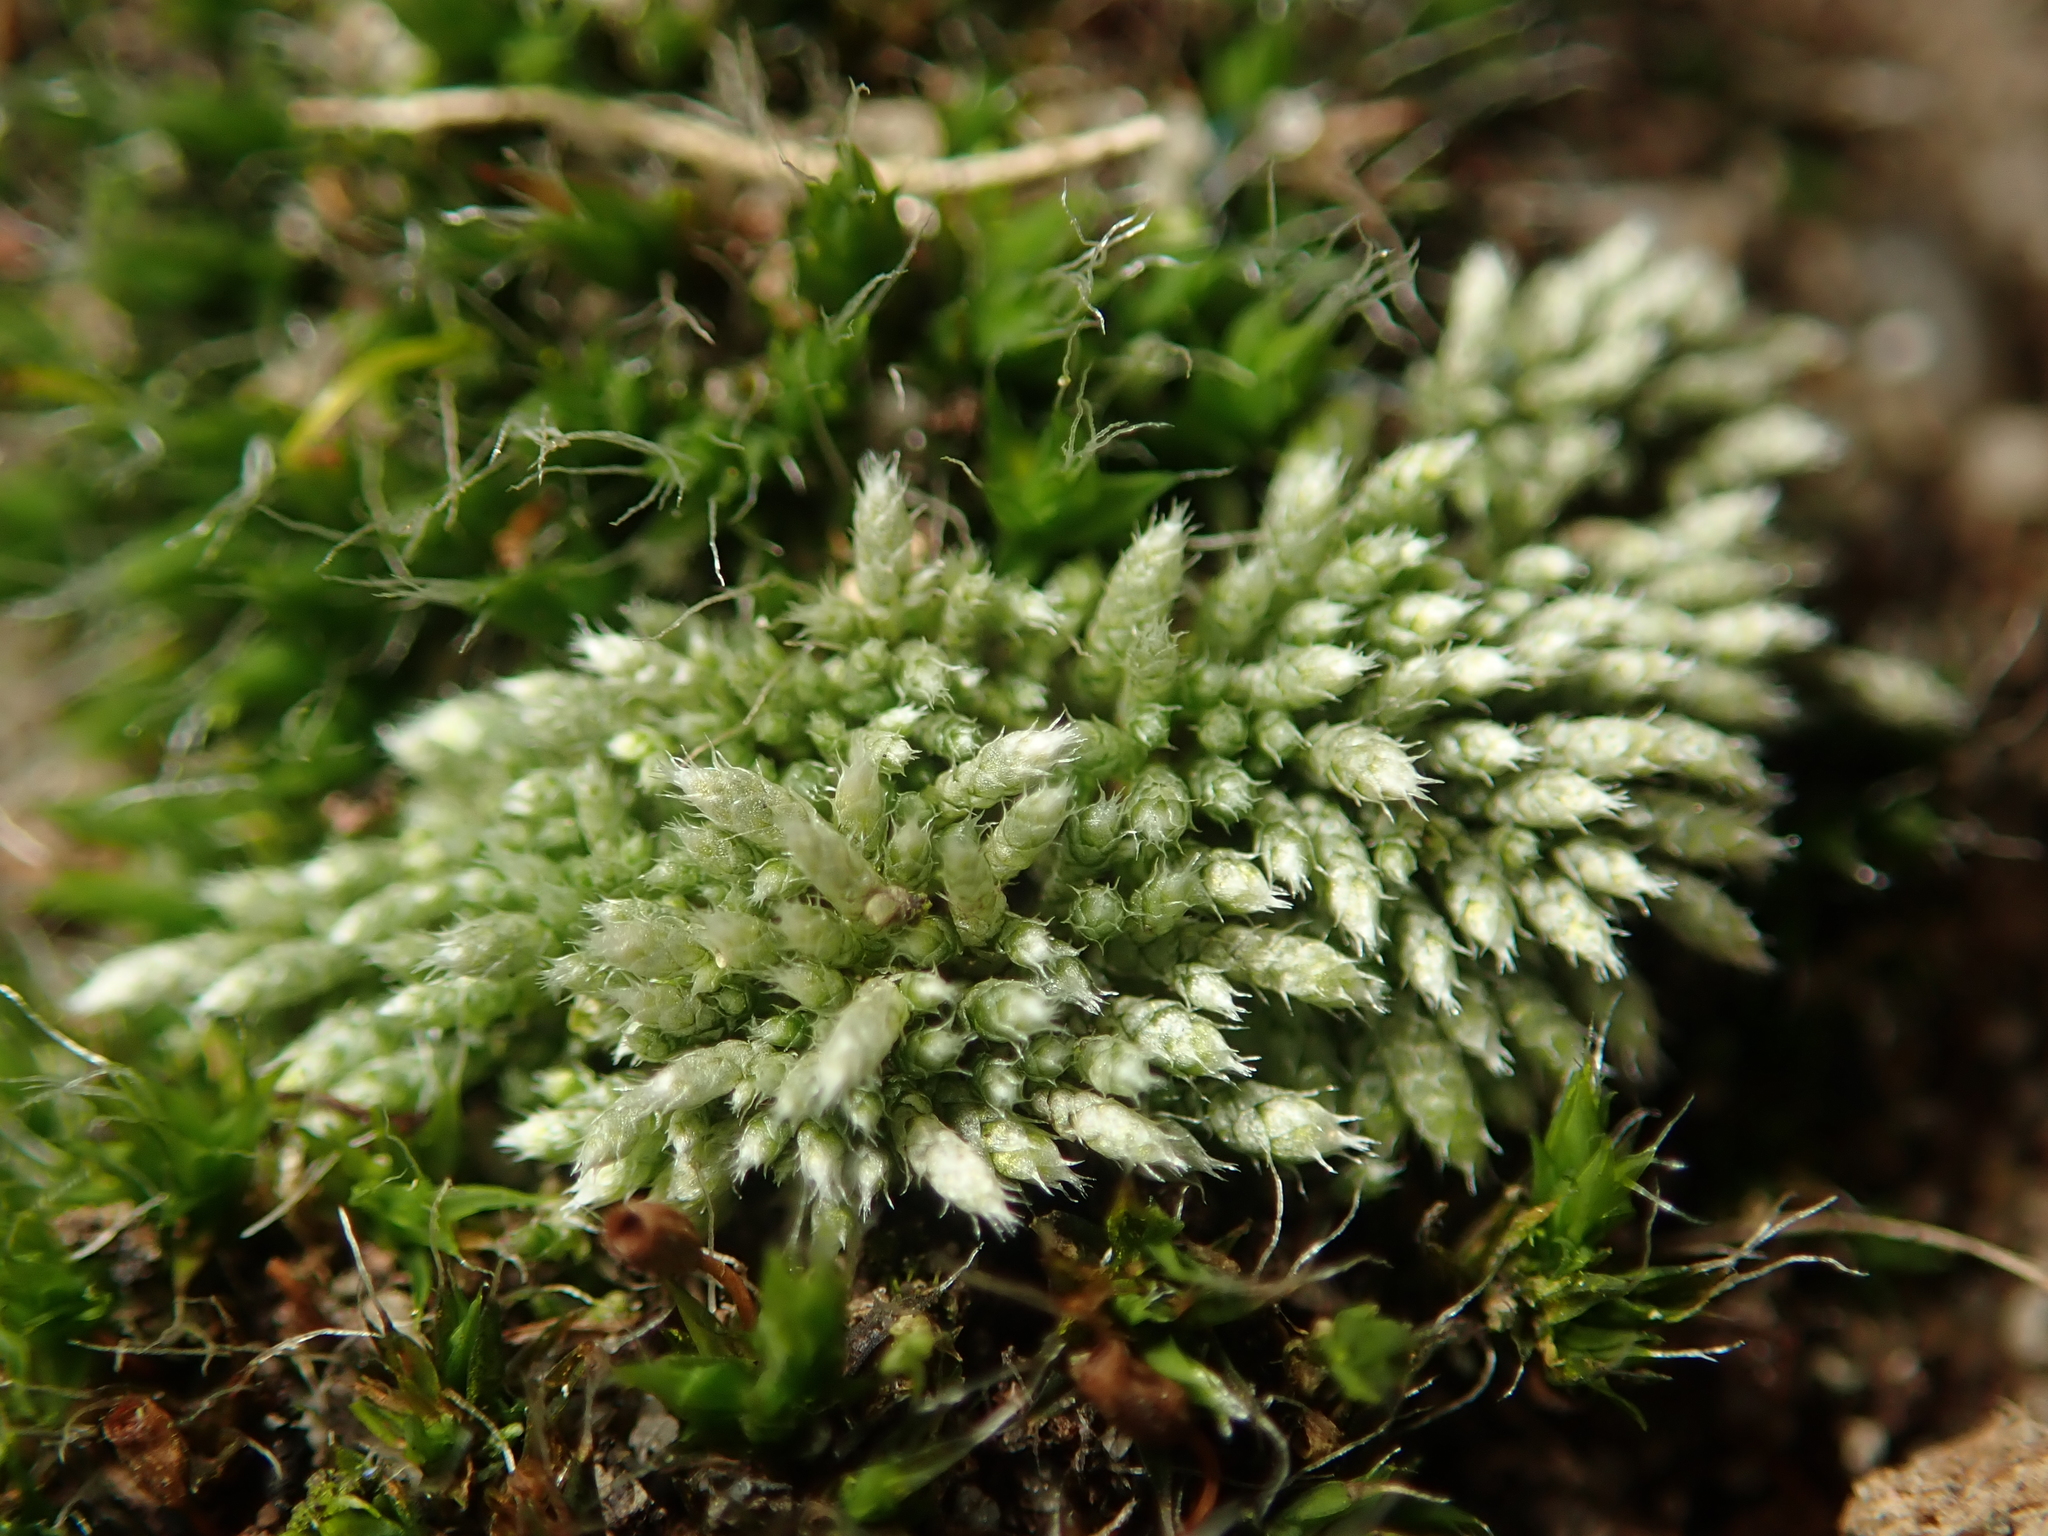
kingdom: Plantae
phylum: Bryophyta
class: Bryopsida
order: Bryales
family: Bryaceae
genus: Bryum
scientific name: Bryum argenteum
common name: Silver-moss
